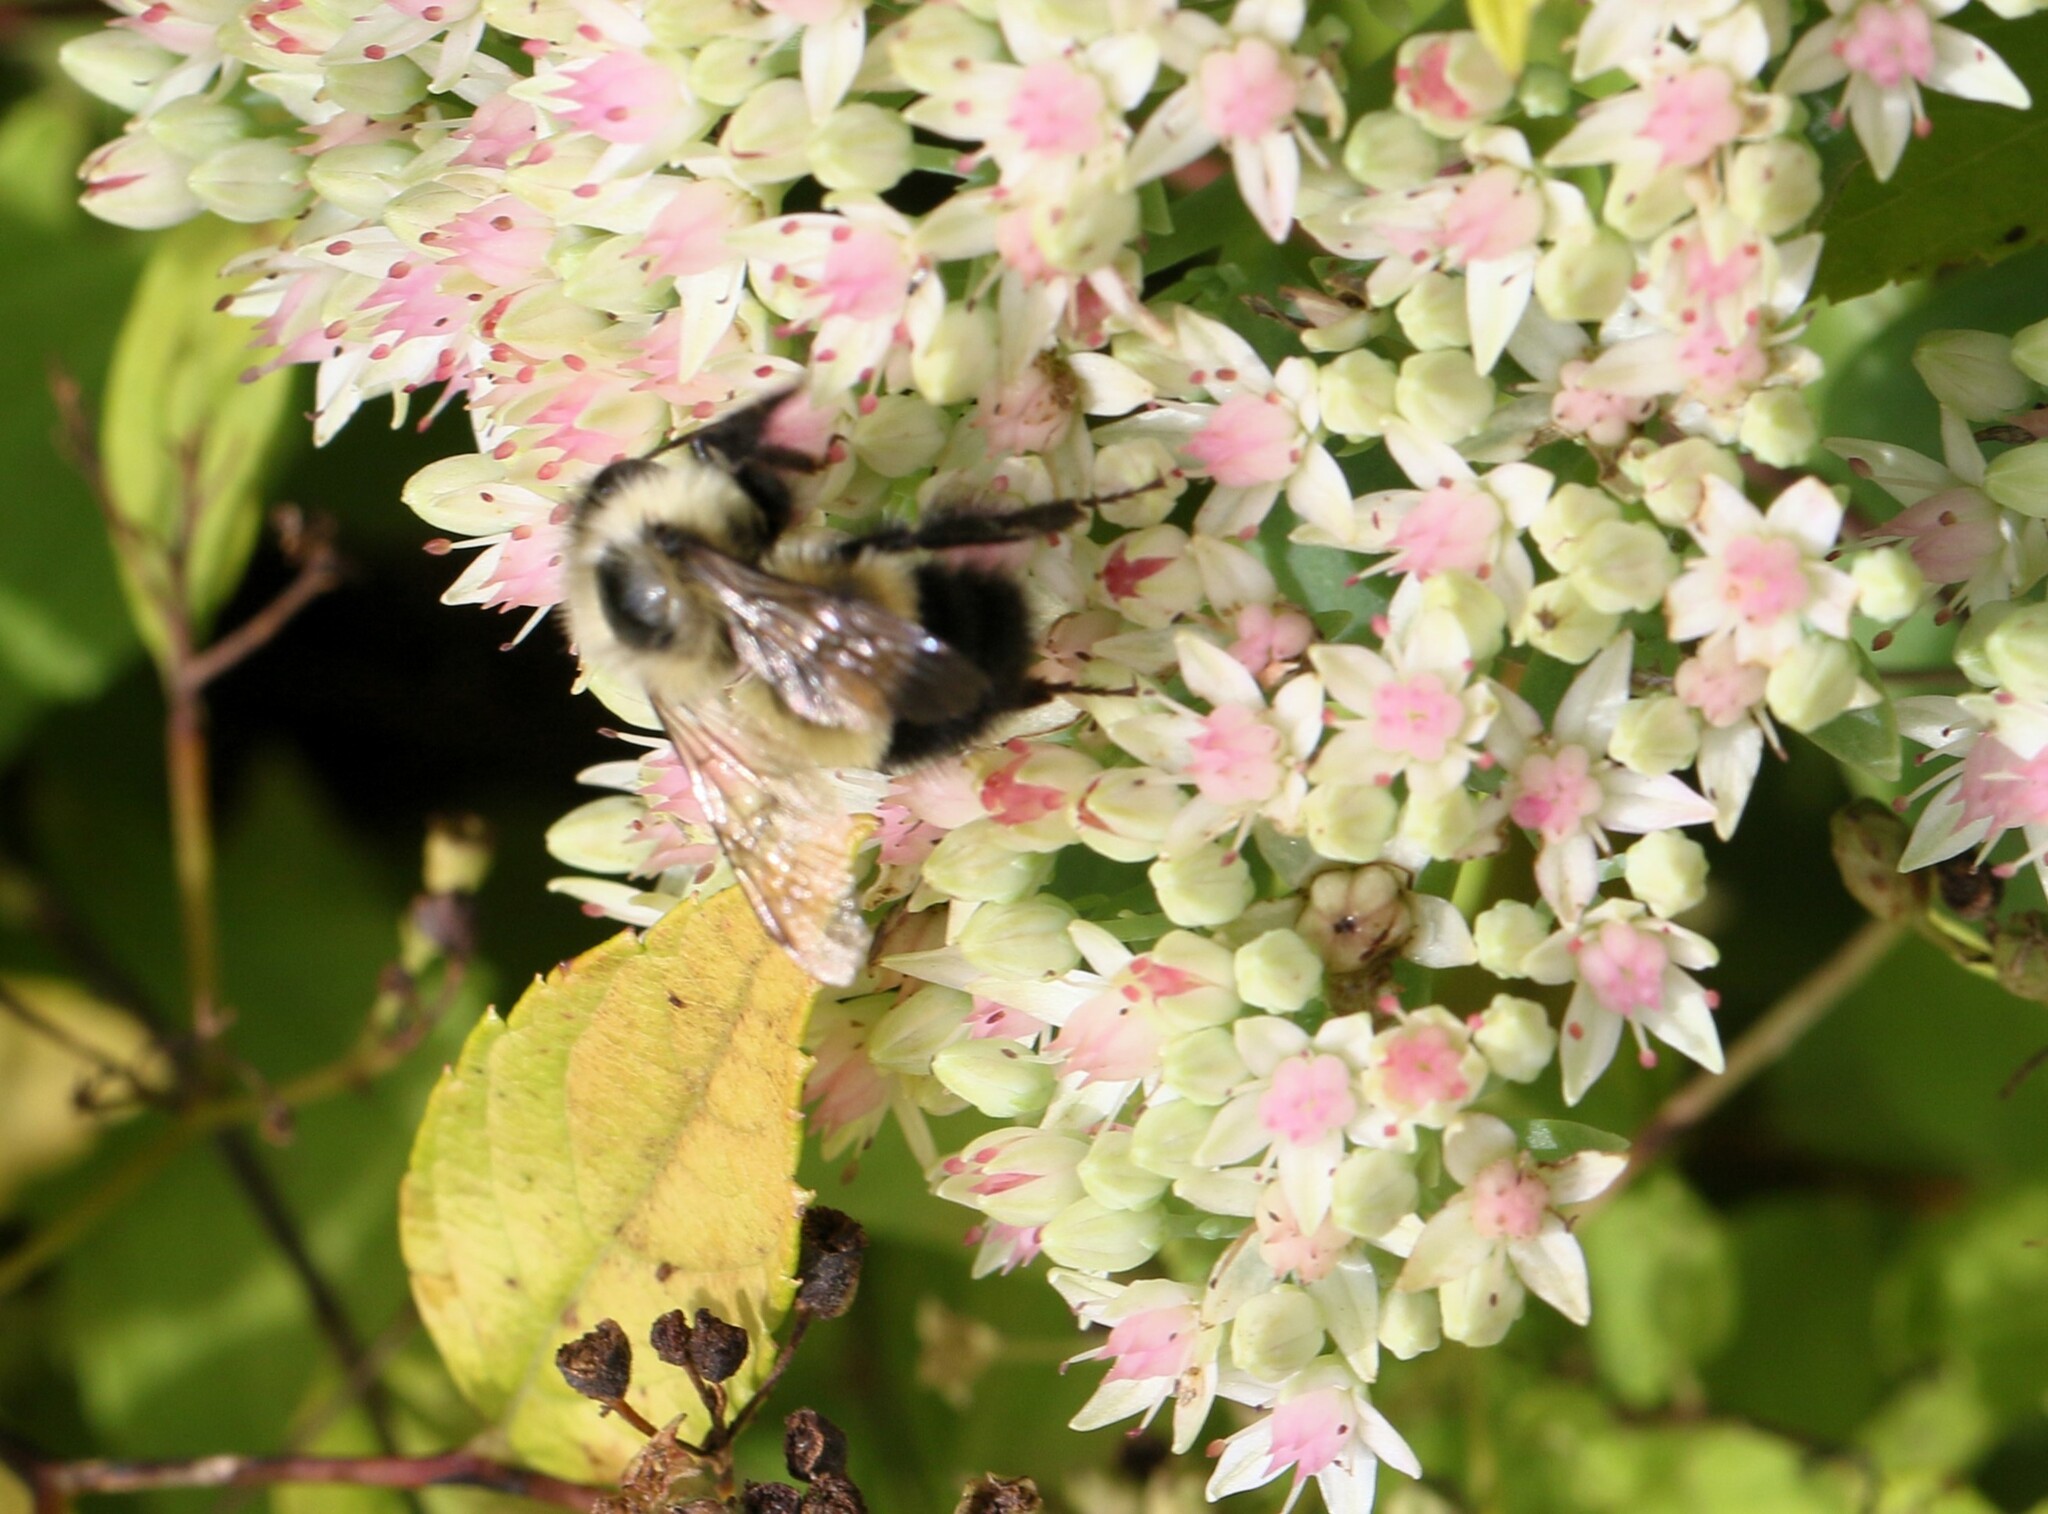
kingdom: Animalia
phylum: Arthropoda
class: Insecta
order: Hymenoptera
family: Apidae
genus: Pyrobombus
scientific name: Pyrobombus
